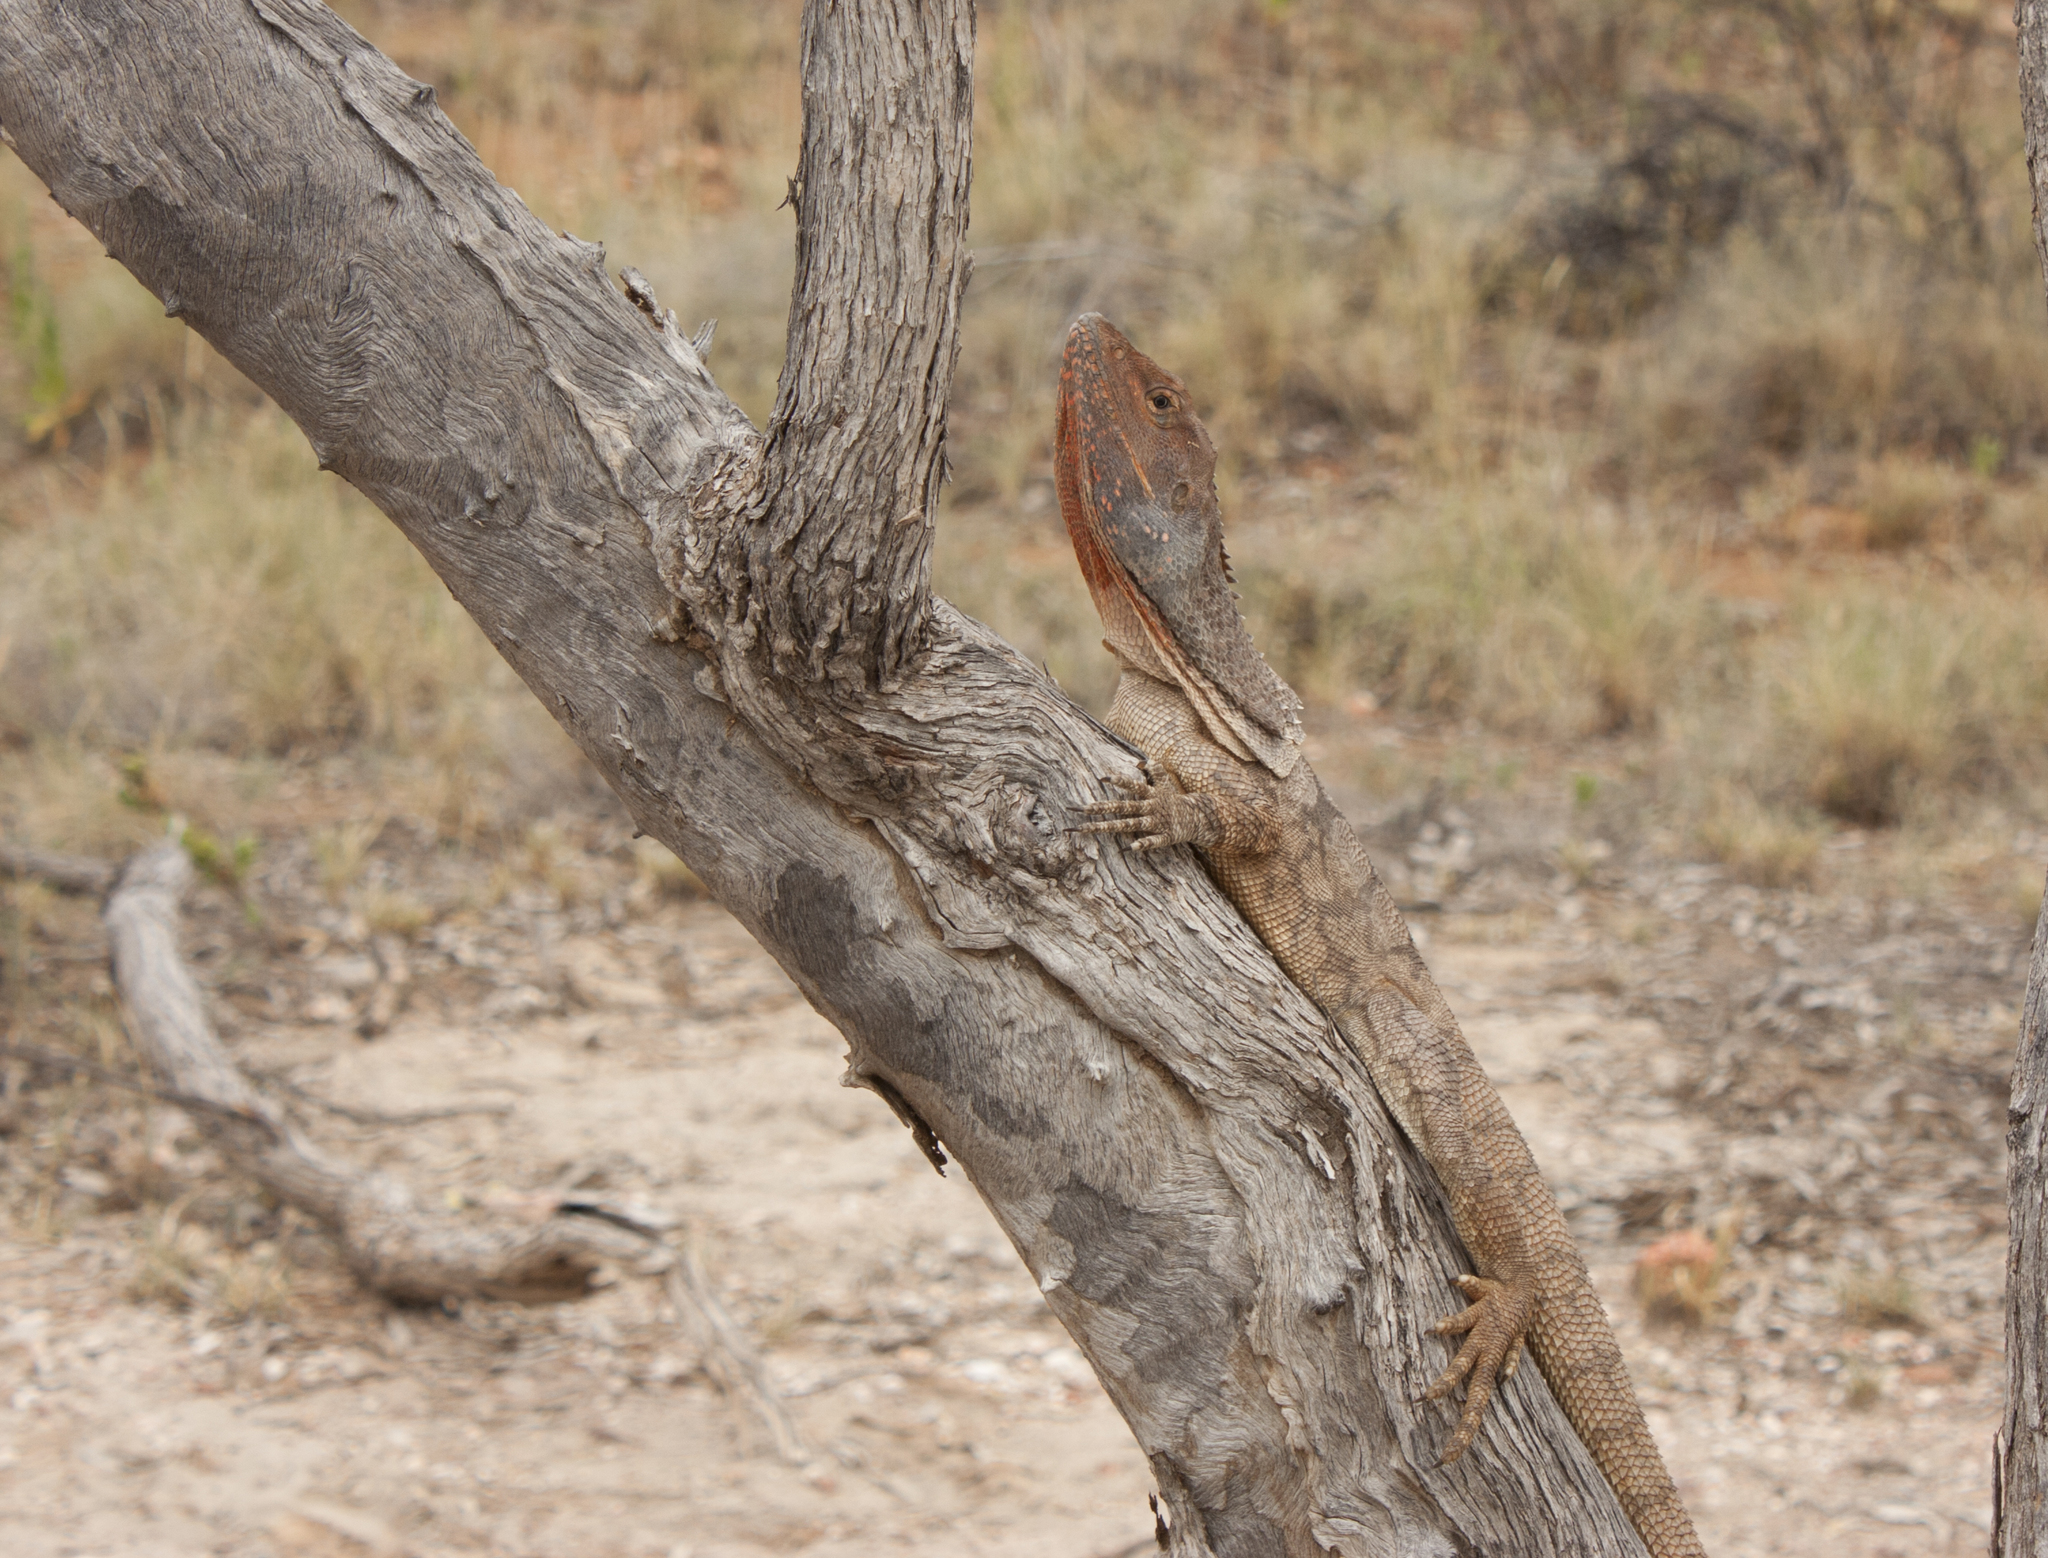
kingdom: Animalia
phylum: Chordata
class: Squamata
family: Agamidae
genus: Chlamydosaurus
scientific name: Chlamydosaurus kingii
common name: Frilled lizard
